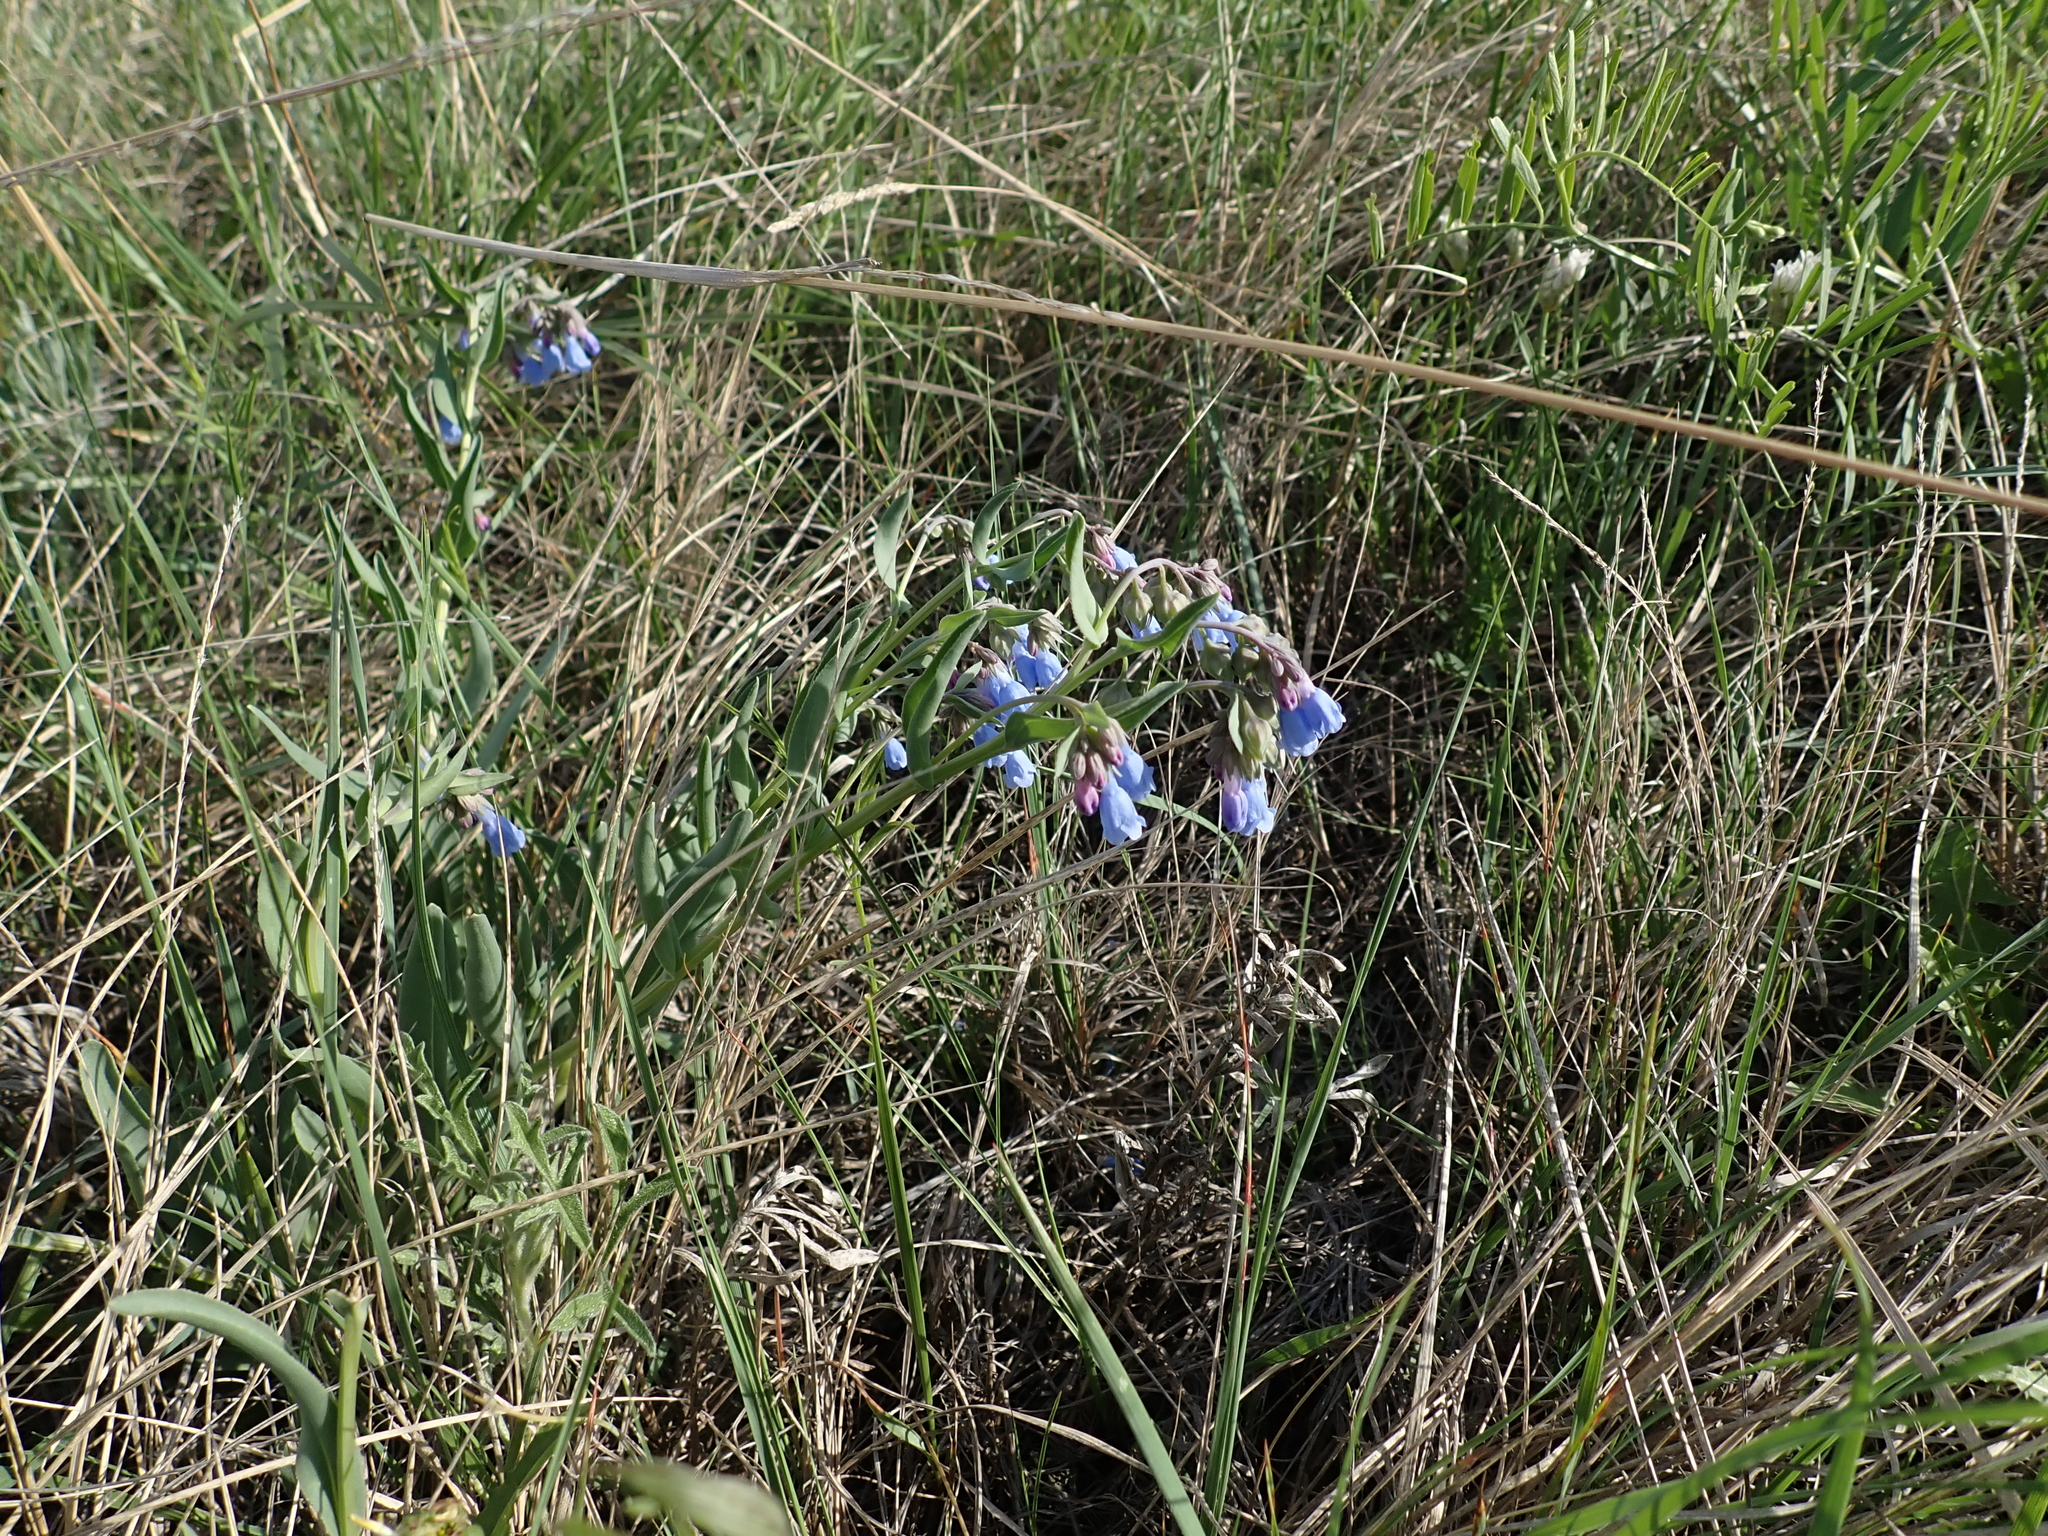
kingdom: Plantae
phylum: Tracheophyta
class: Magnoliopsida
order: Boraginales
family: Boraginaceae
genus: Mertensia
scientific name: Mertensia lanceolata
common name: Lance-leaved bluebells
